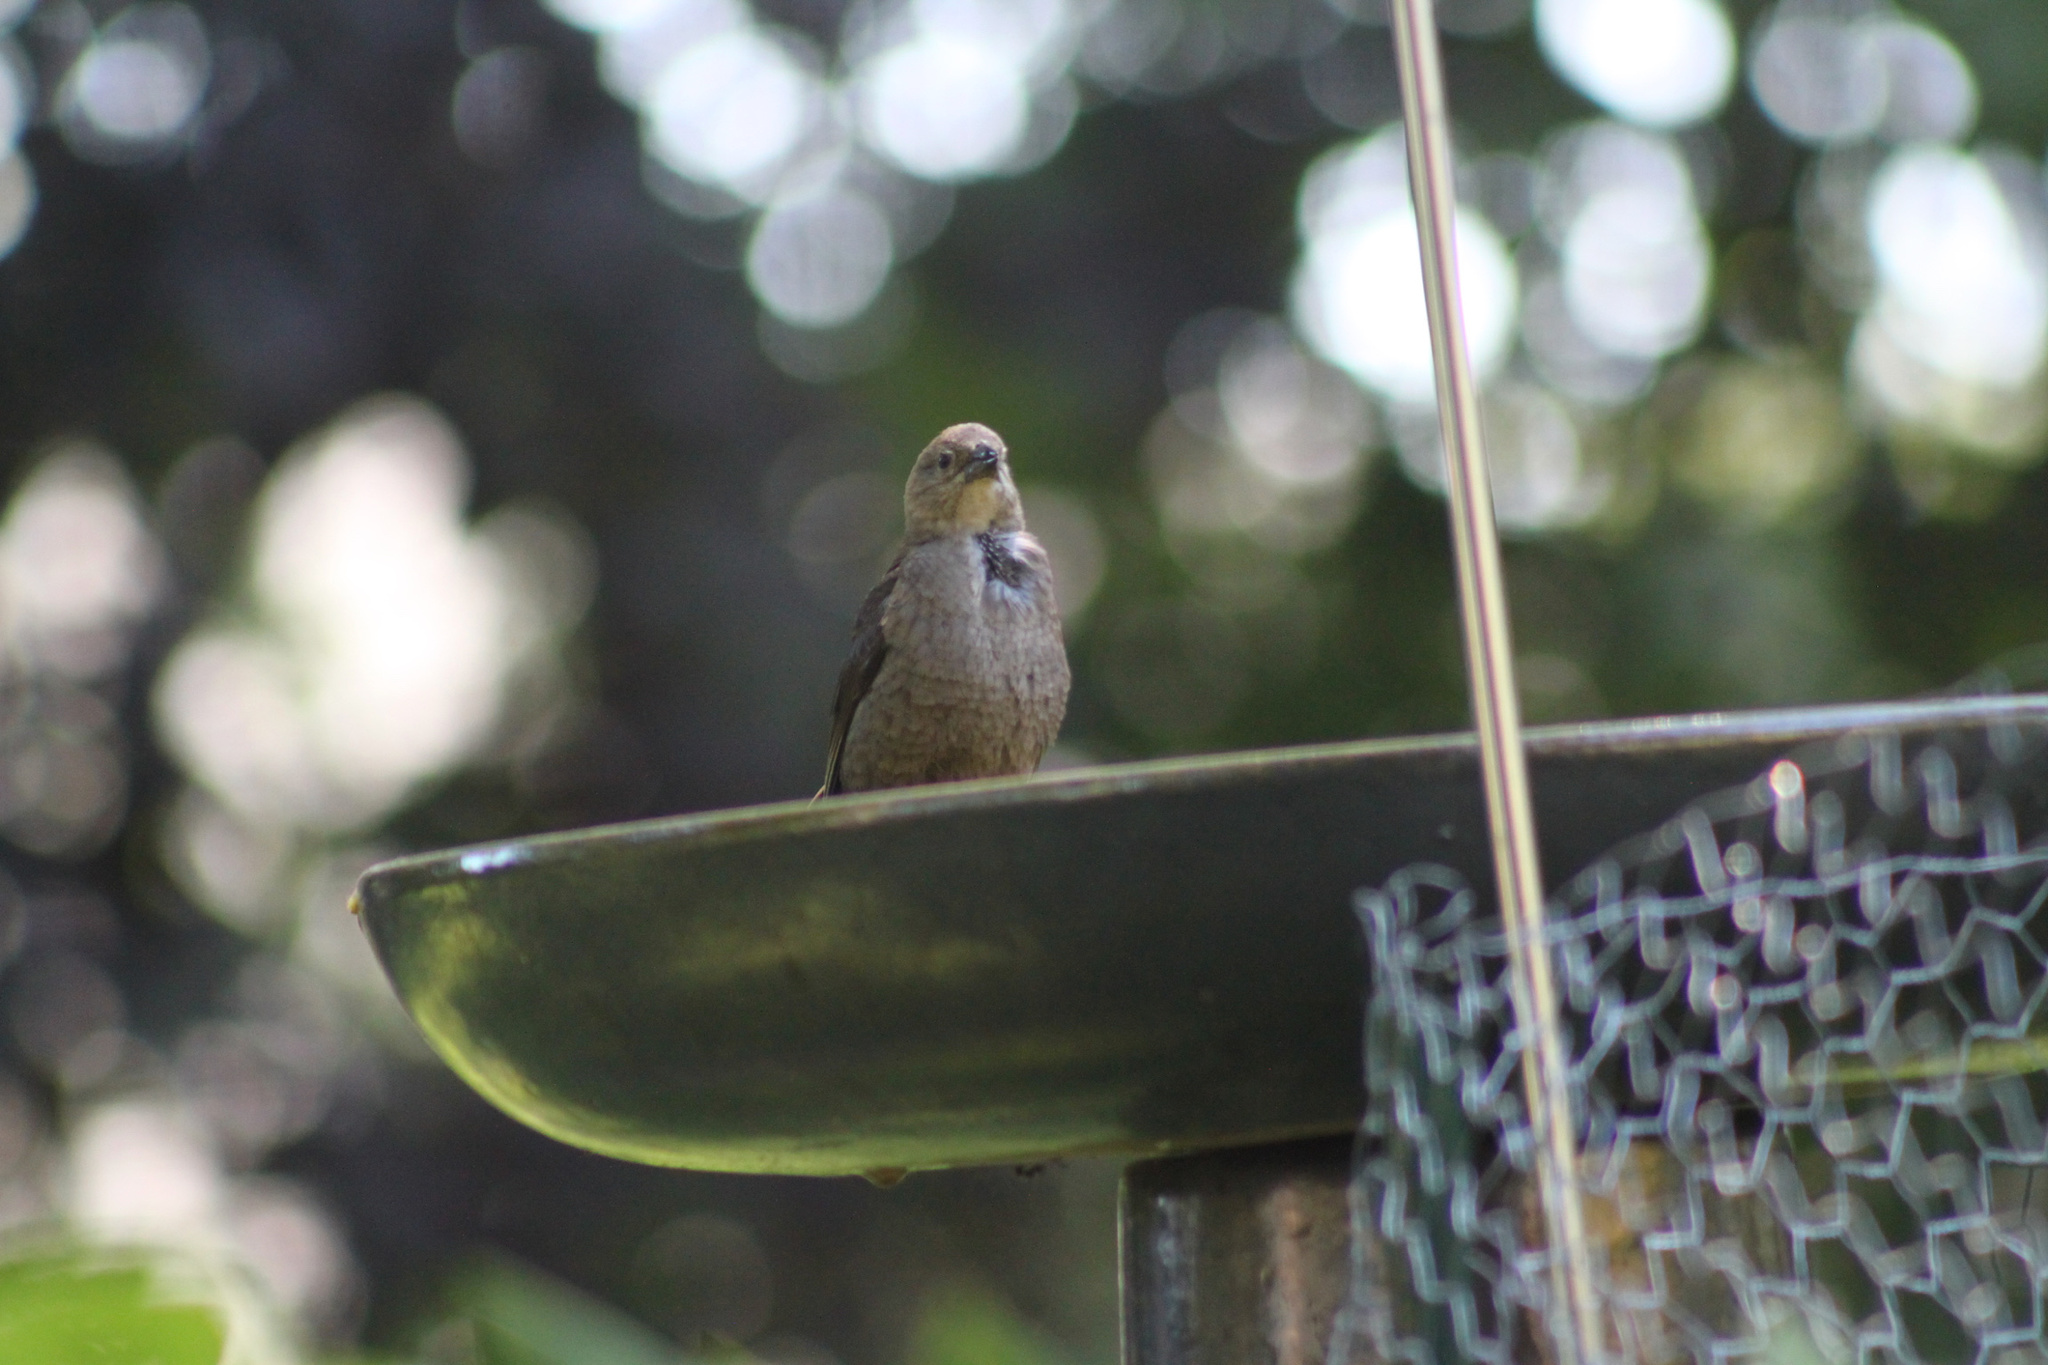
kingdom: Animalia
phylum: Chordata
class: Aves
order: Passeriformes
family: Icteridae
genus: Molothrus
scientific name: Molothrus ater
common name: Brown-headed cowbird
